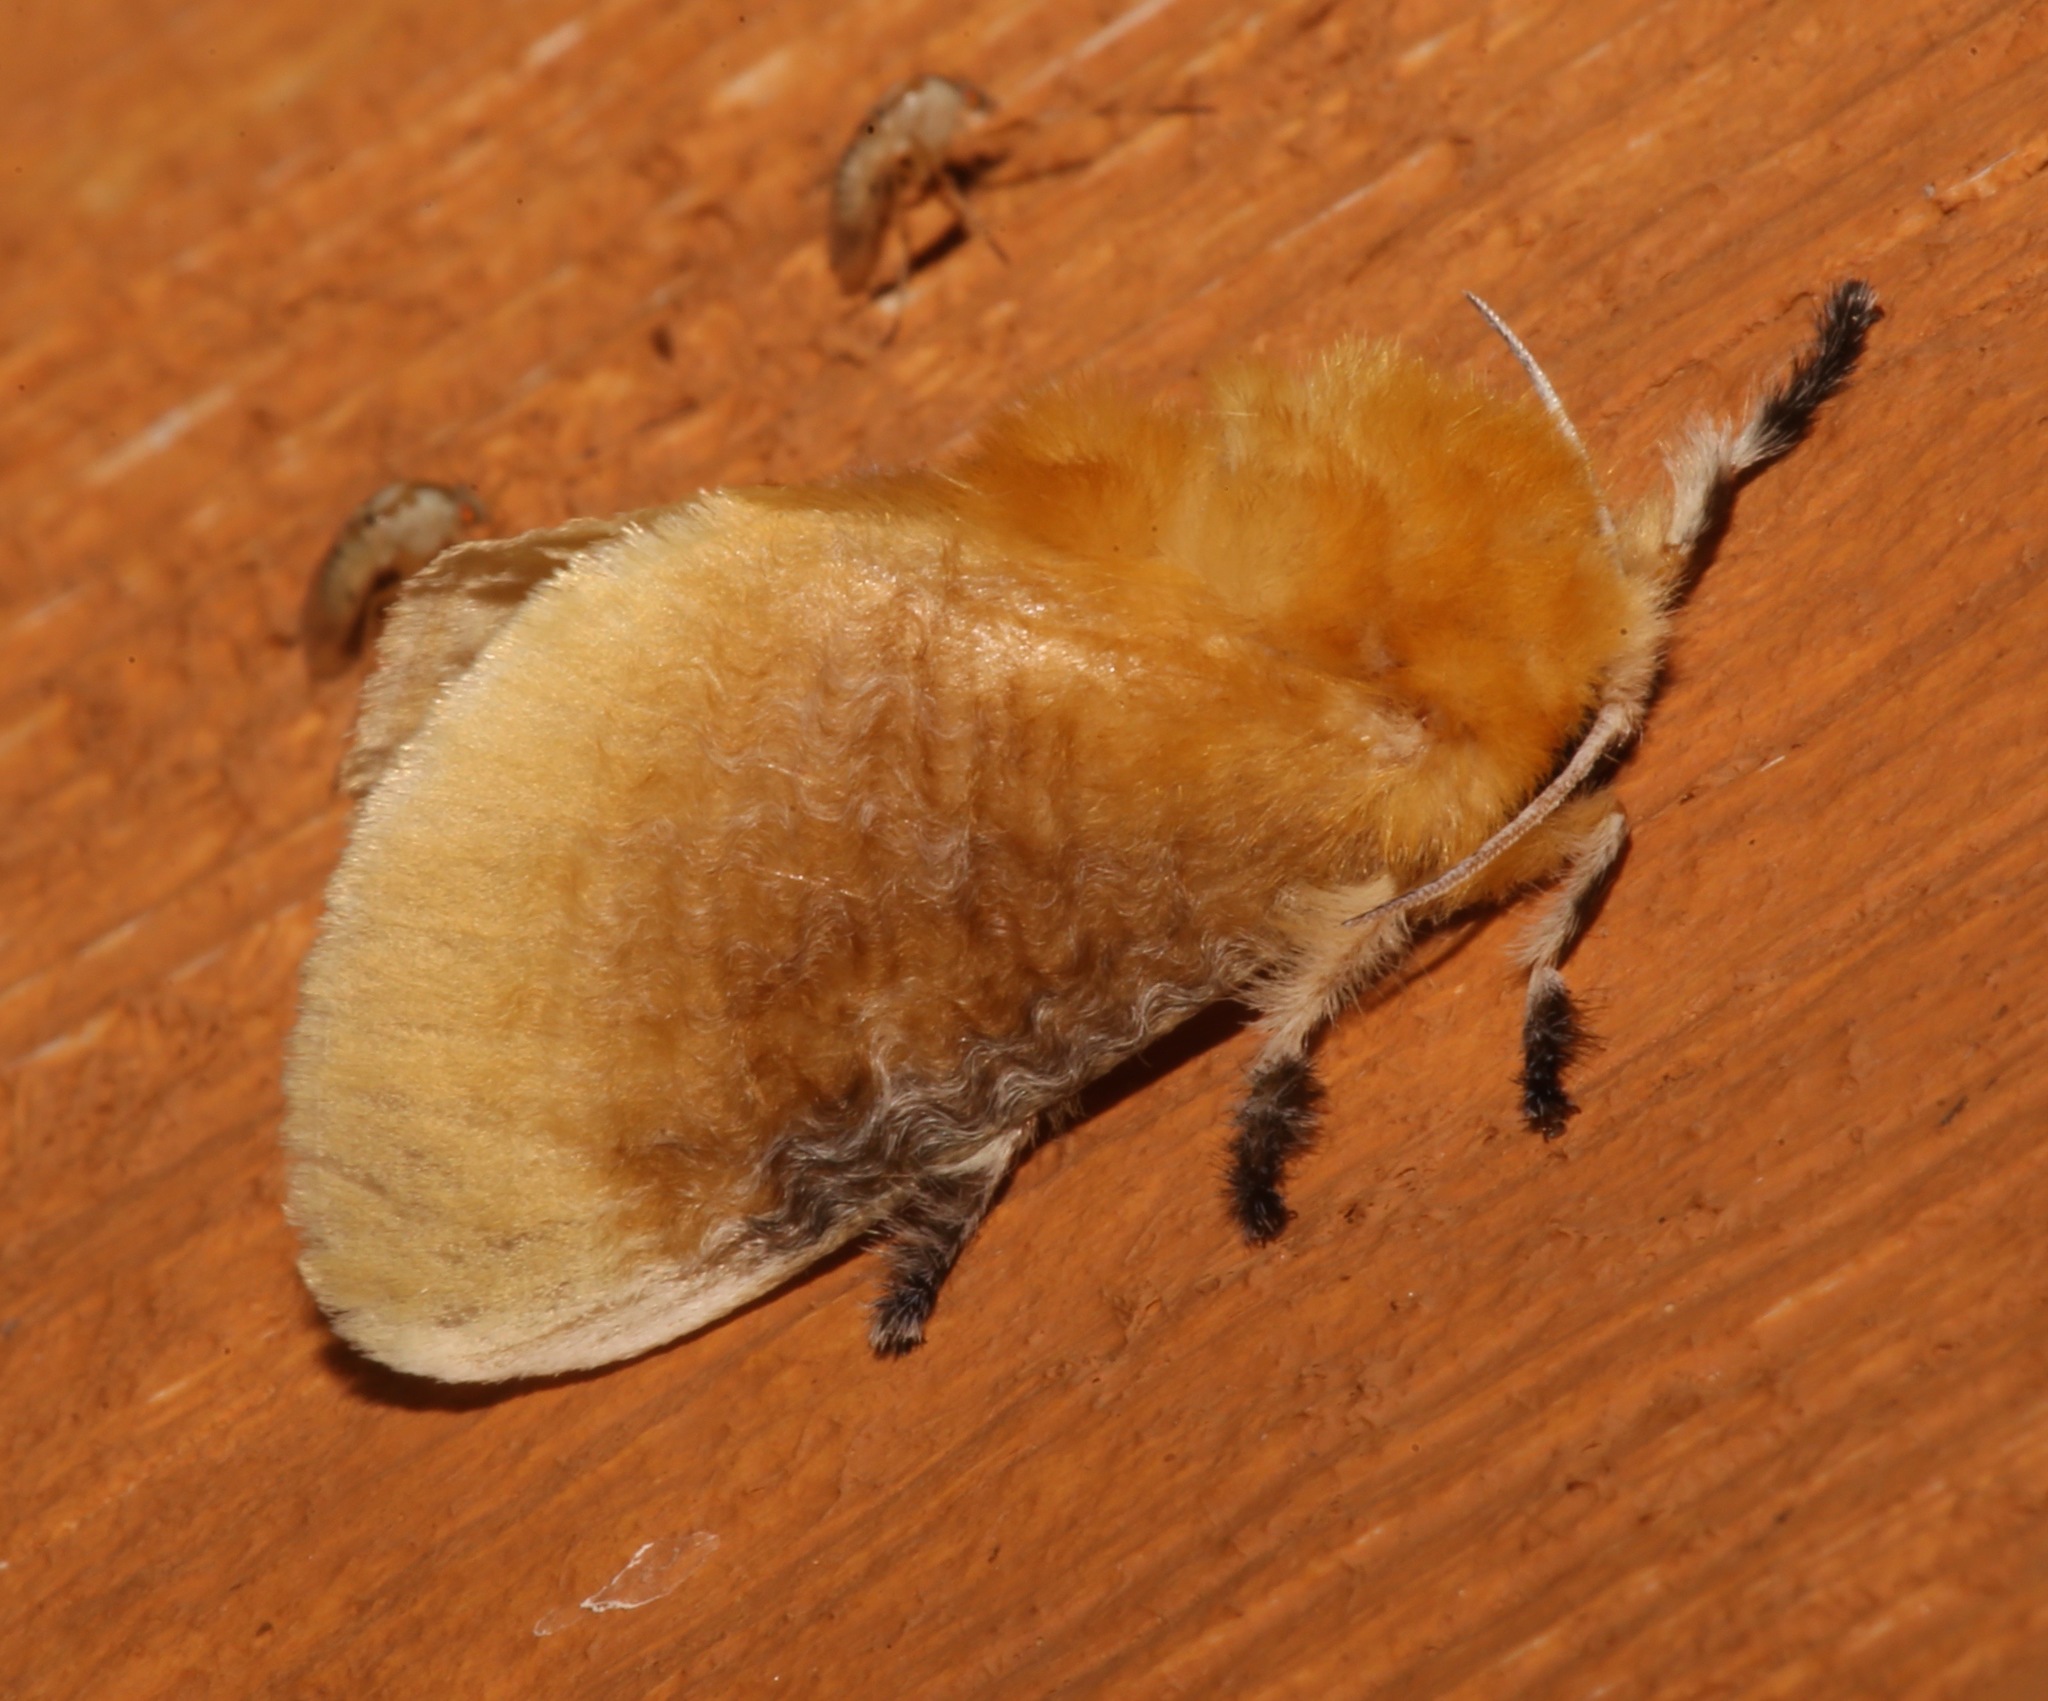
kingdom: Animalia
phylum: Arthropoda
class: Insecta
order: Lepidoptera
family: Megalopygidae
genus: Megalopyge
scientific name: Megalopyge opercularis
